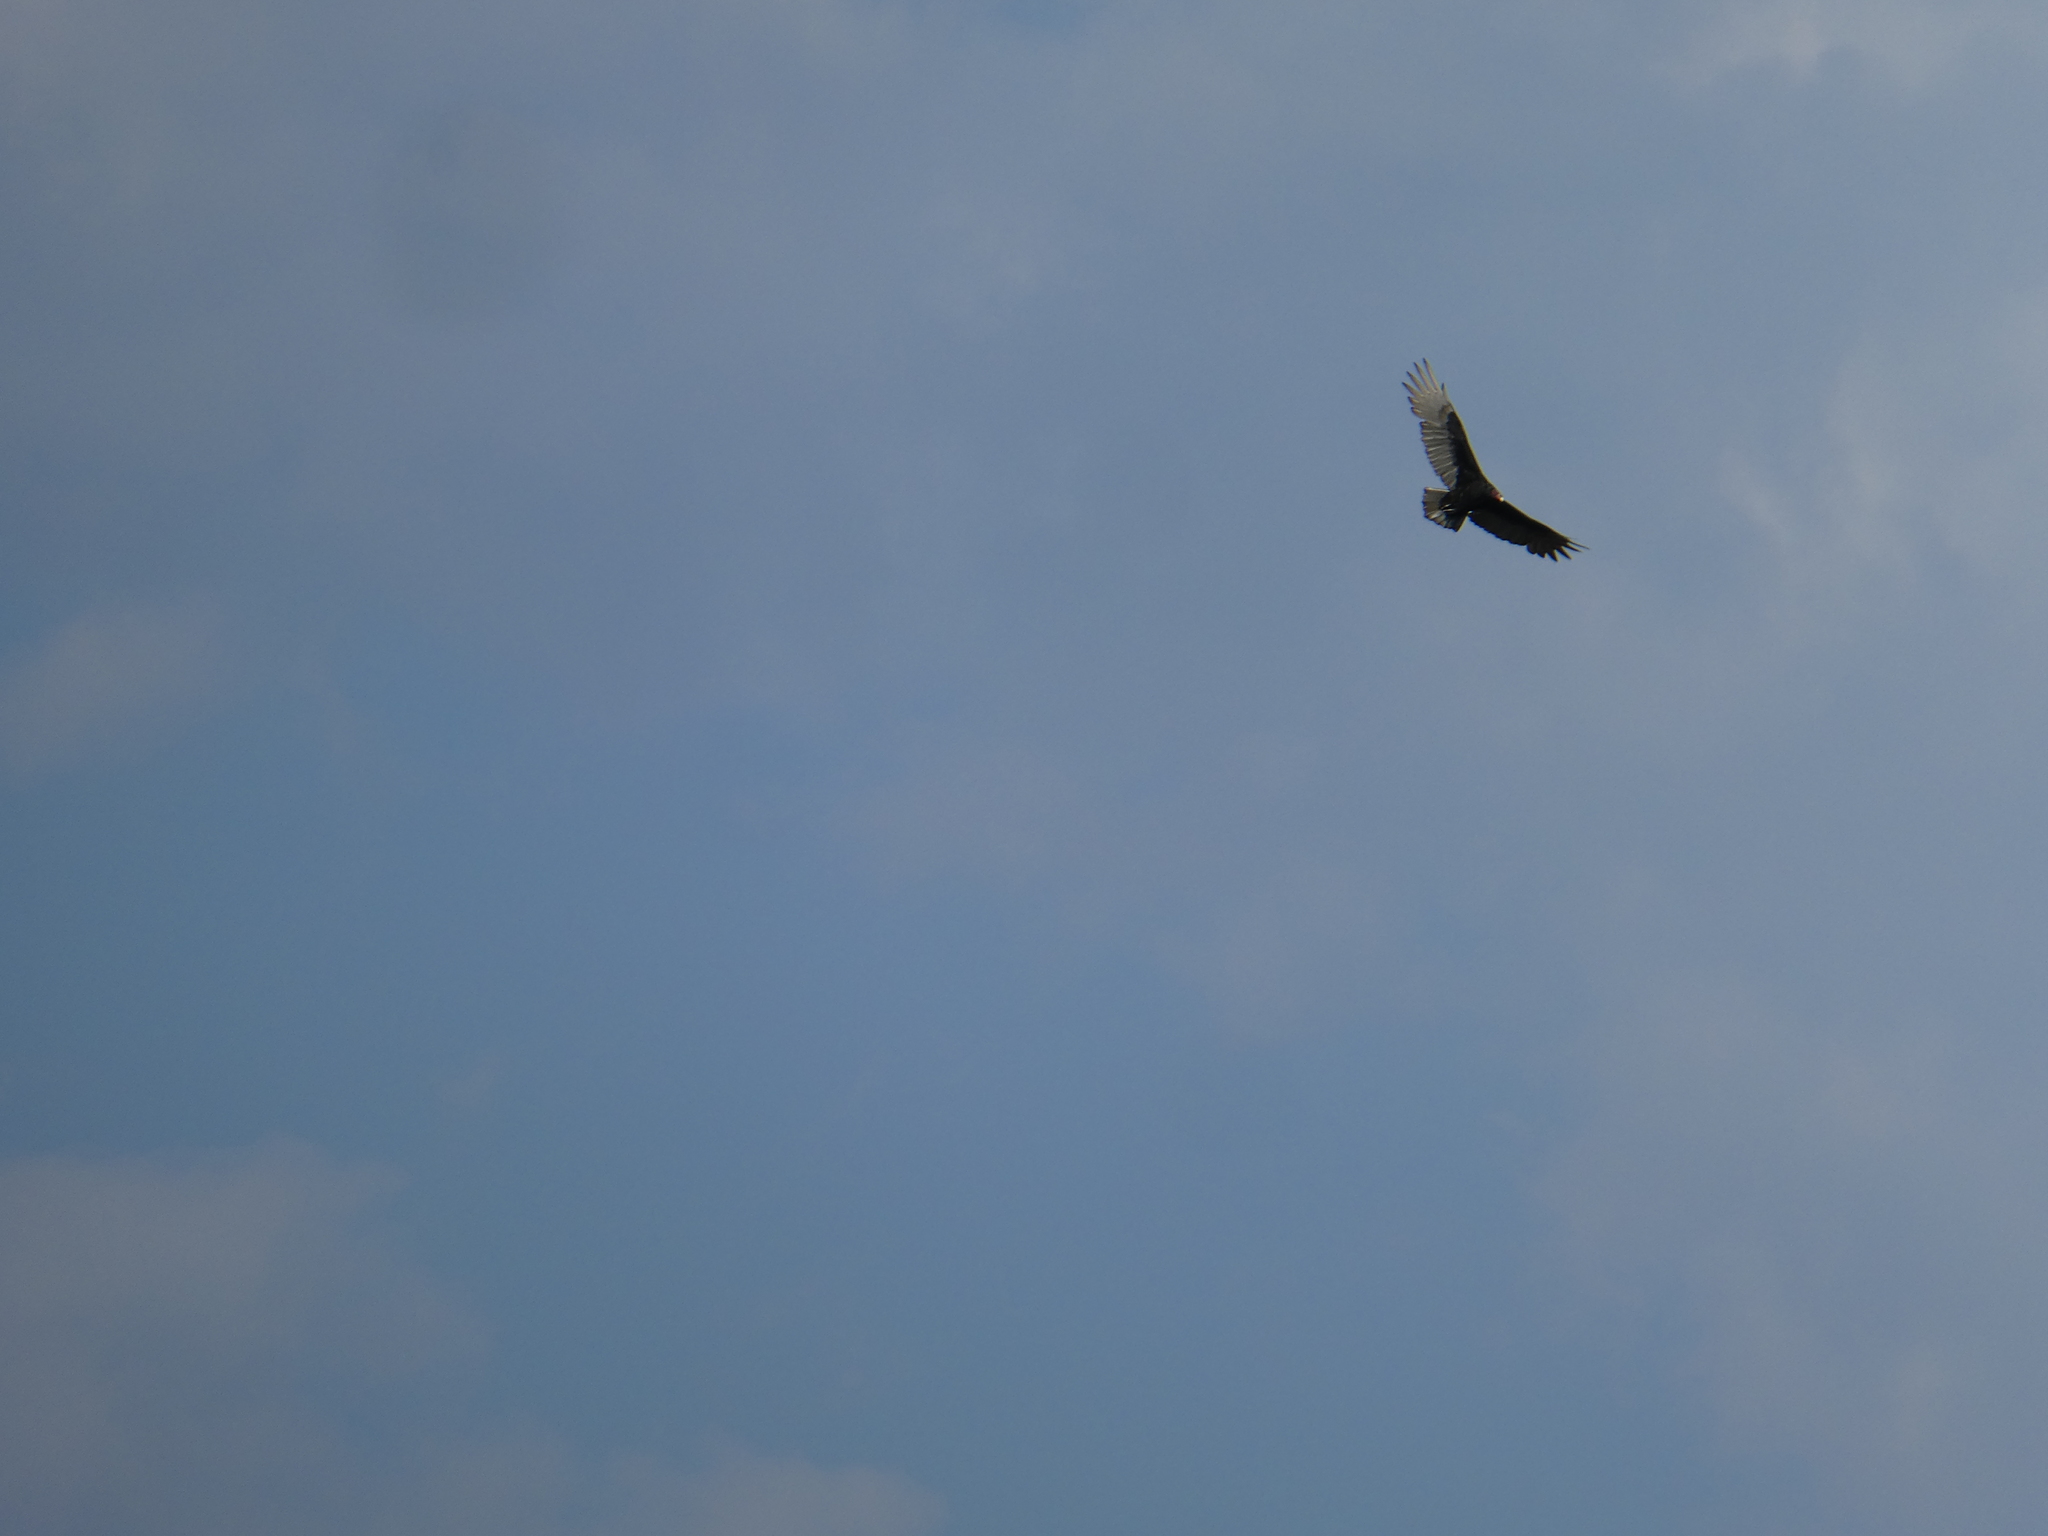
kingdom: Animalia
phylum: Chordata
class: Aves
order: Accipitriformes
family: Cathartidae
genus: Cathartes
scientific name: Cathartes aura
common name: Turkey vulture
